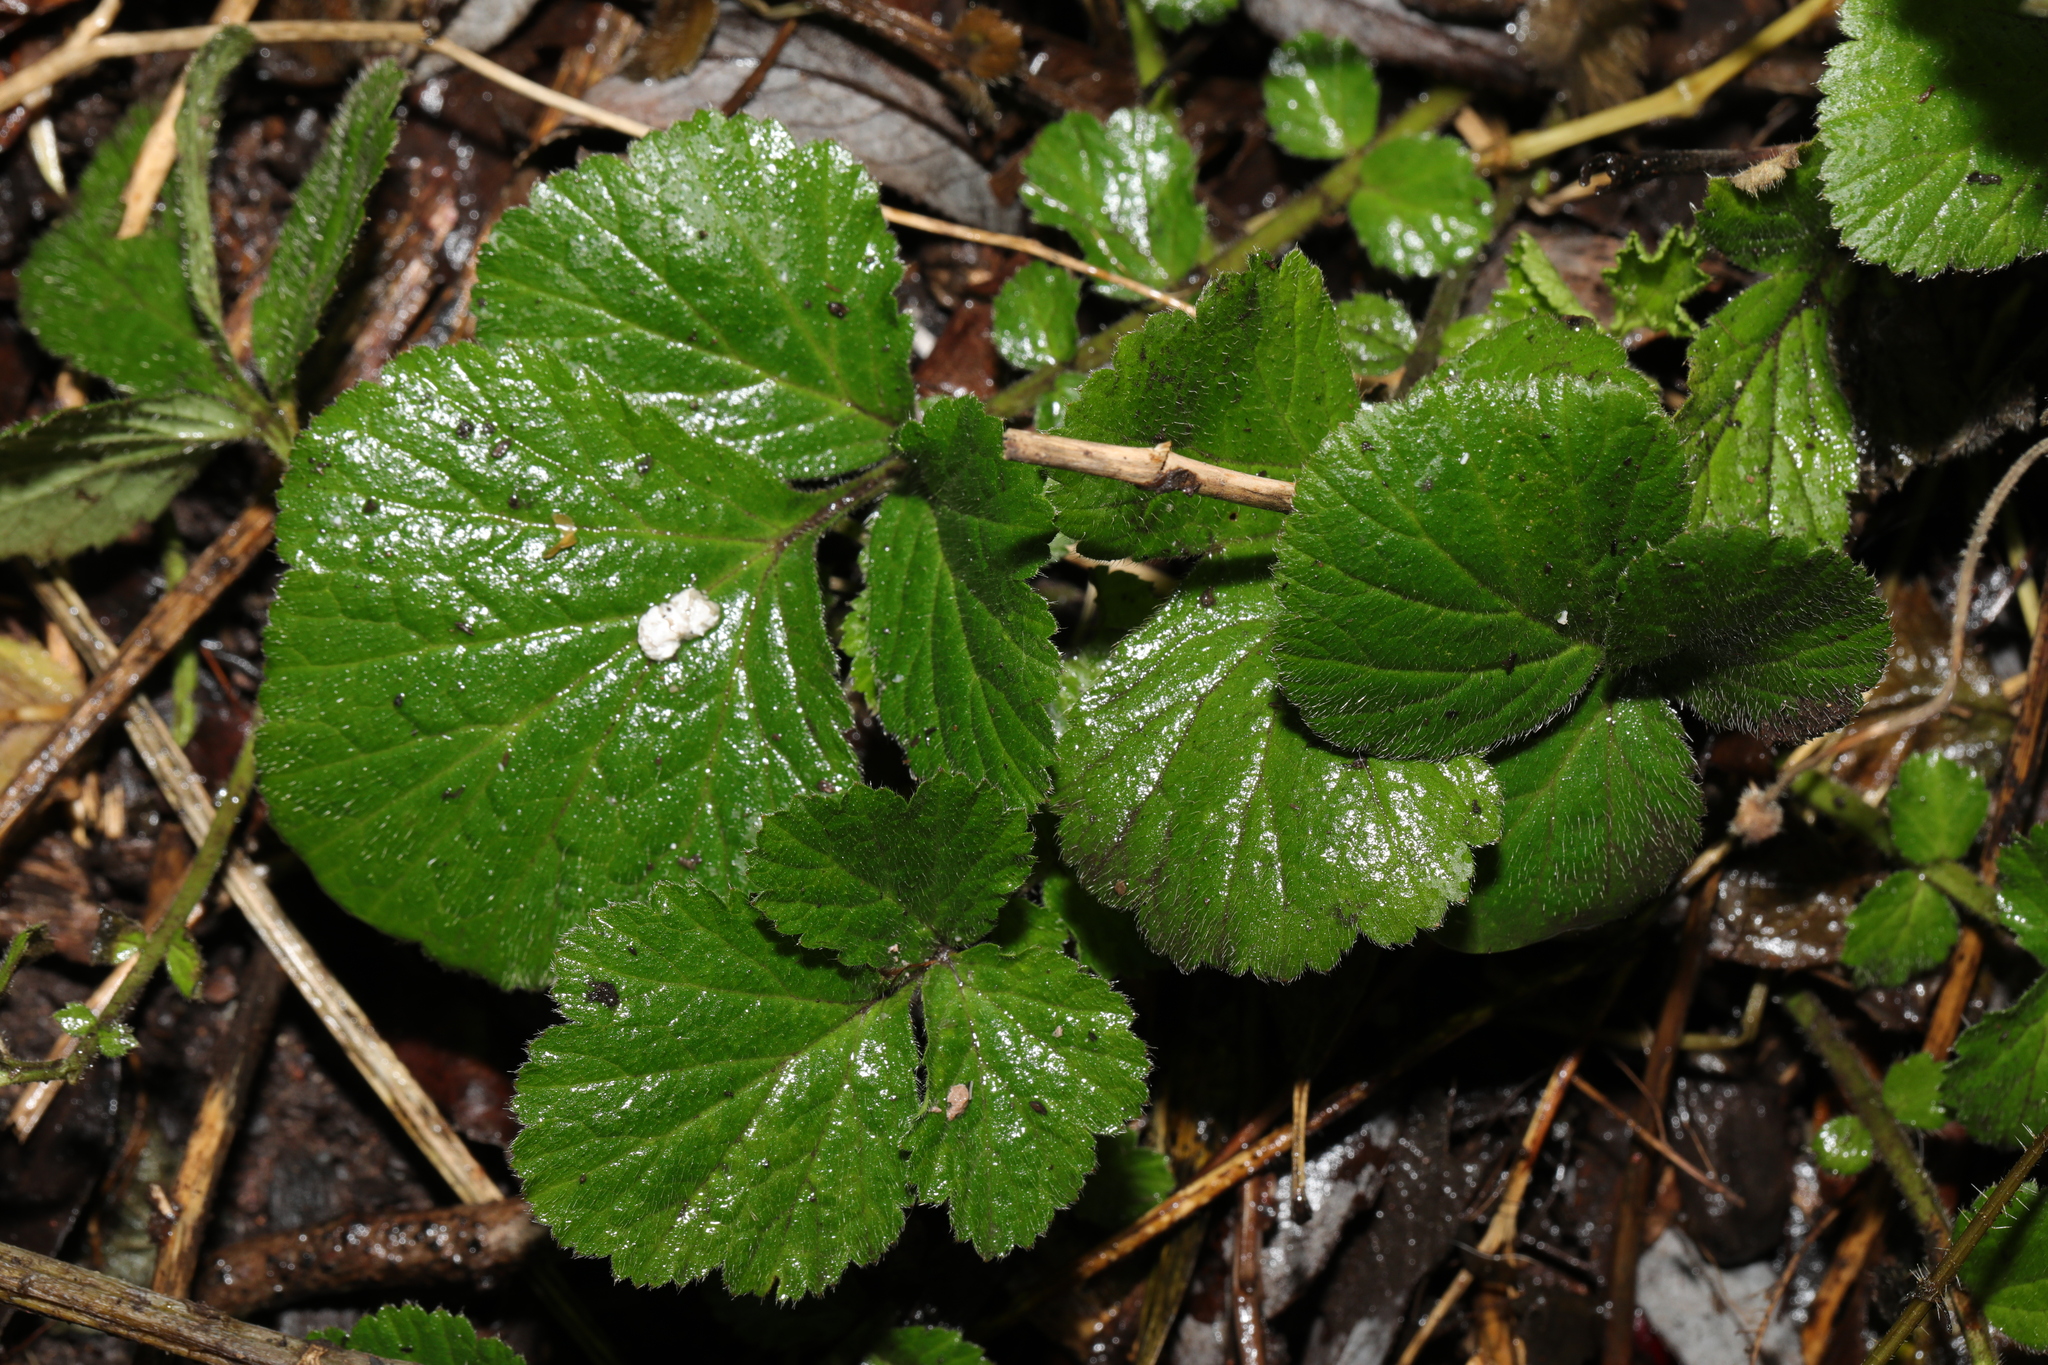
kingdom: Plantae
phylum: Tracheophyta
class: Magnoliopsida
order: Rosales
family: Rosaceae
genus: Geum
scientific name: Geum urbanum
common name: Wood avens
